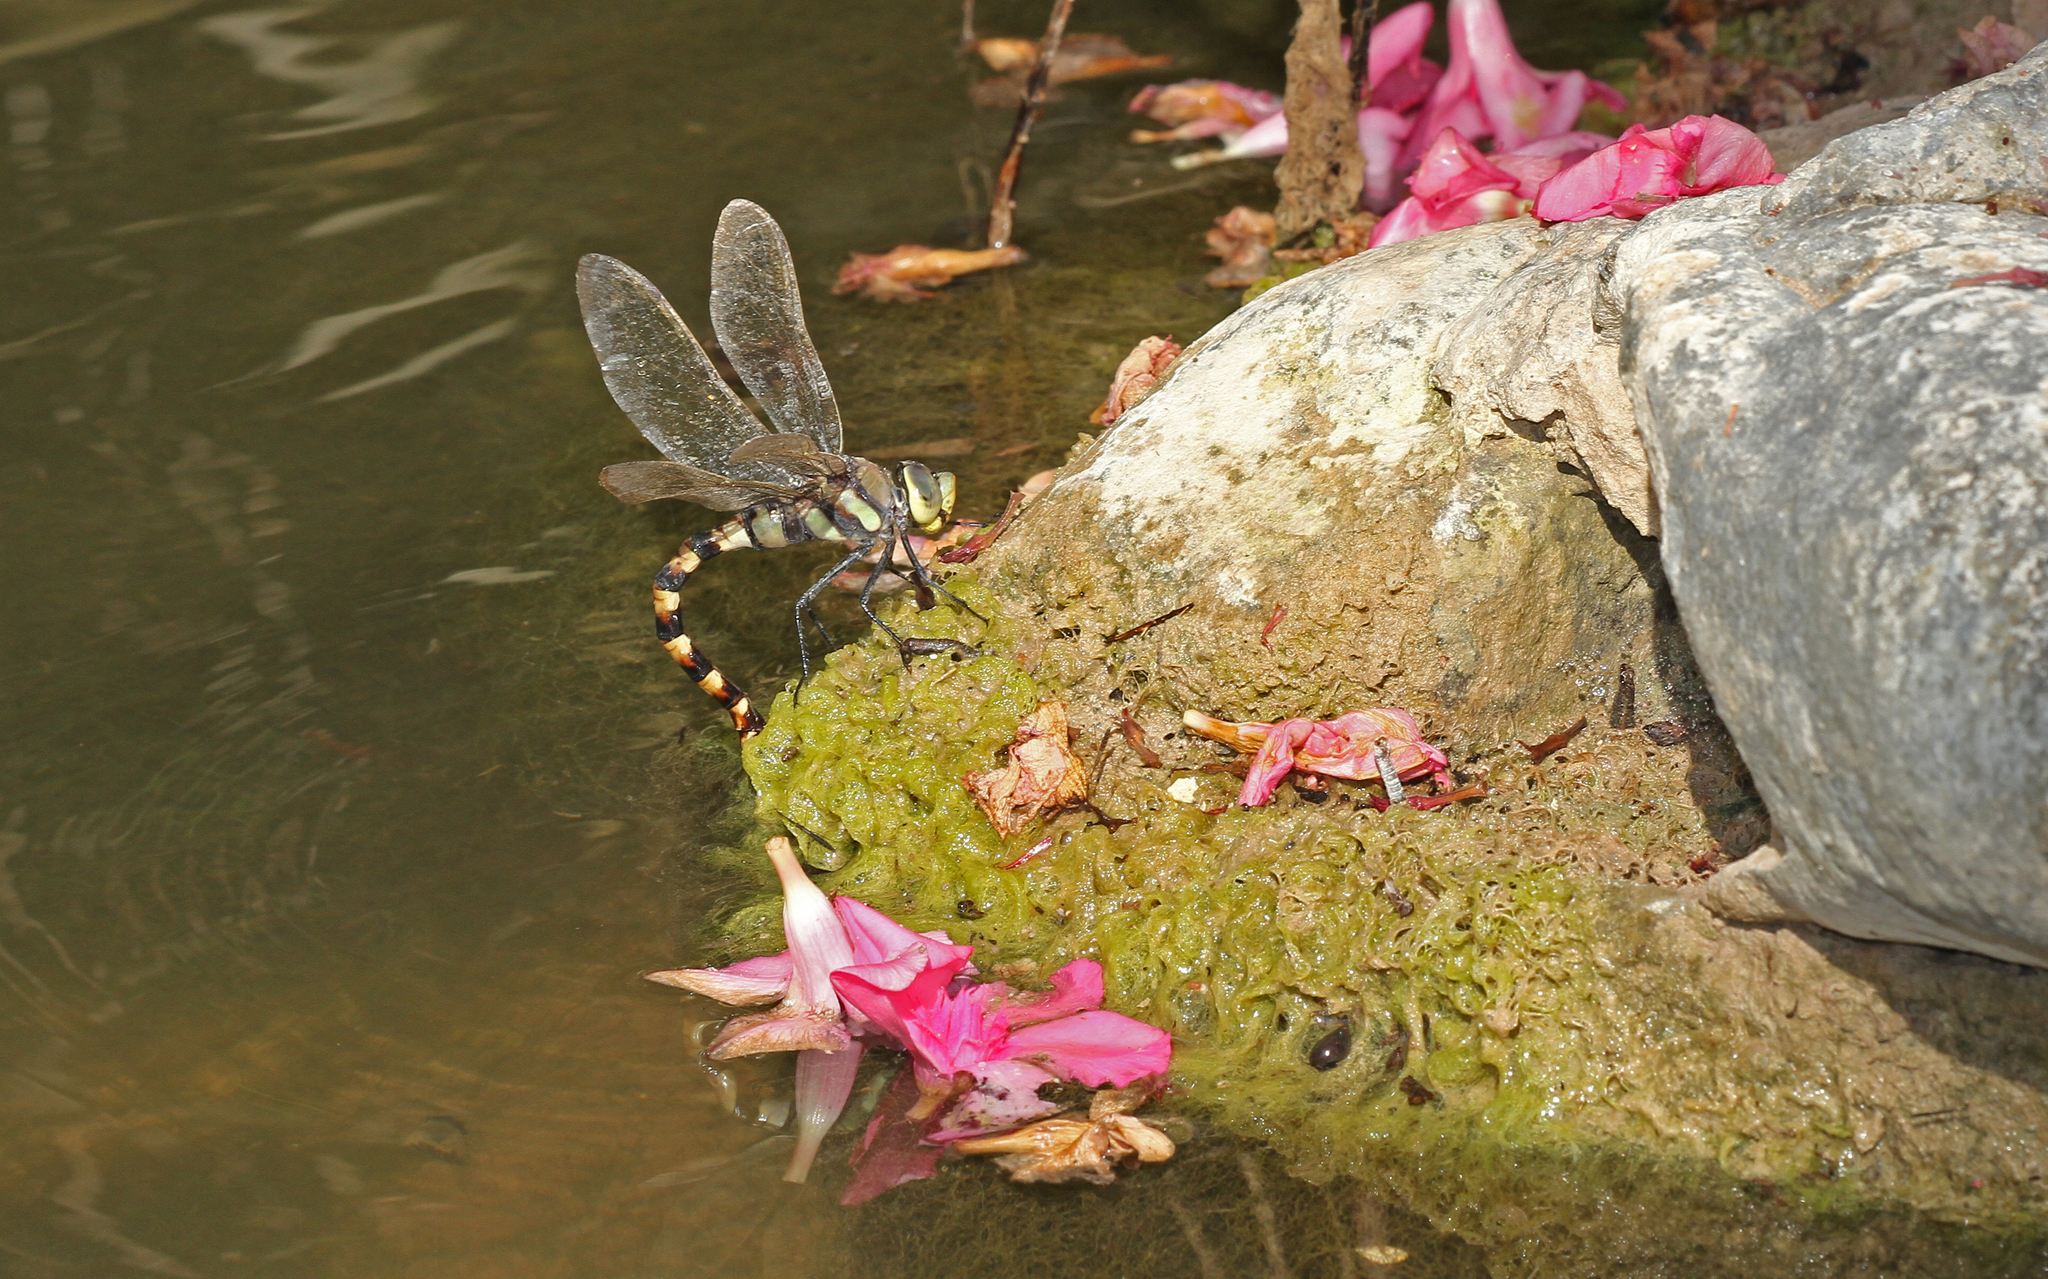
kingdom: Animalia
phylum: Arthropoda
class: Insecta
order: Odonata
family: Aeshnidae
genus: Anax
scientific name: Anax immaculifrons
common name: Magnificent emperor
